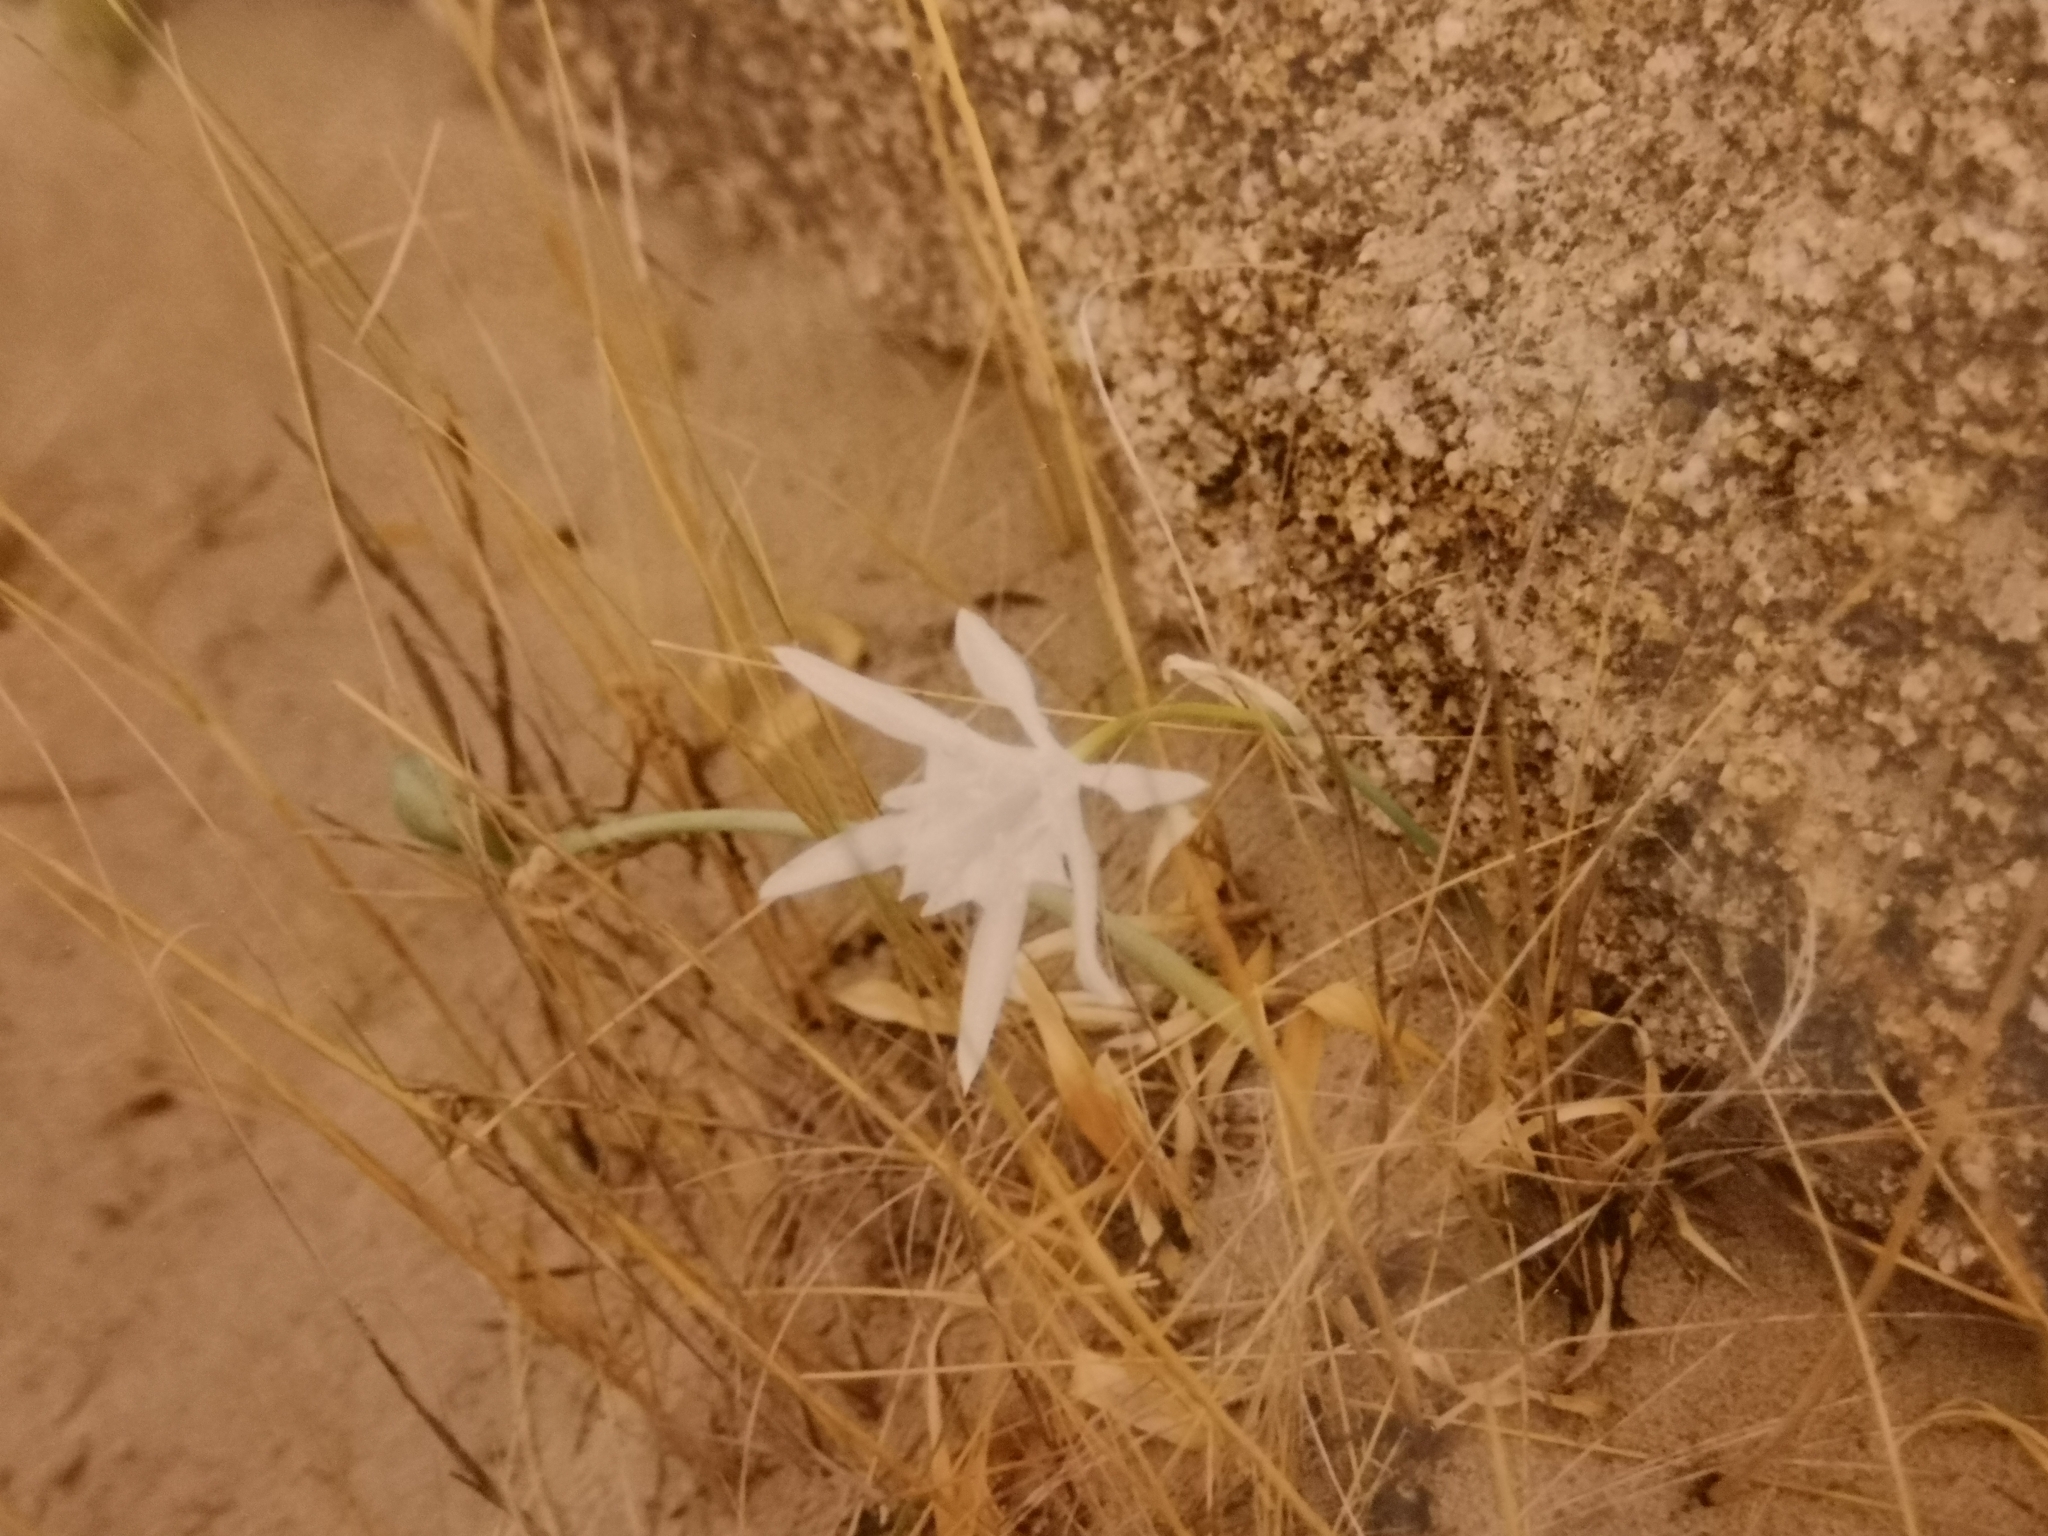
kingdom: Plantae
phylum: Tracheophyta
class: Liliopsida
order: Asparagales
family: Amaryllidaceae
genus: Pancratium
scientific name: Pancratium maritimum
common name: Sea-daffodil
